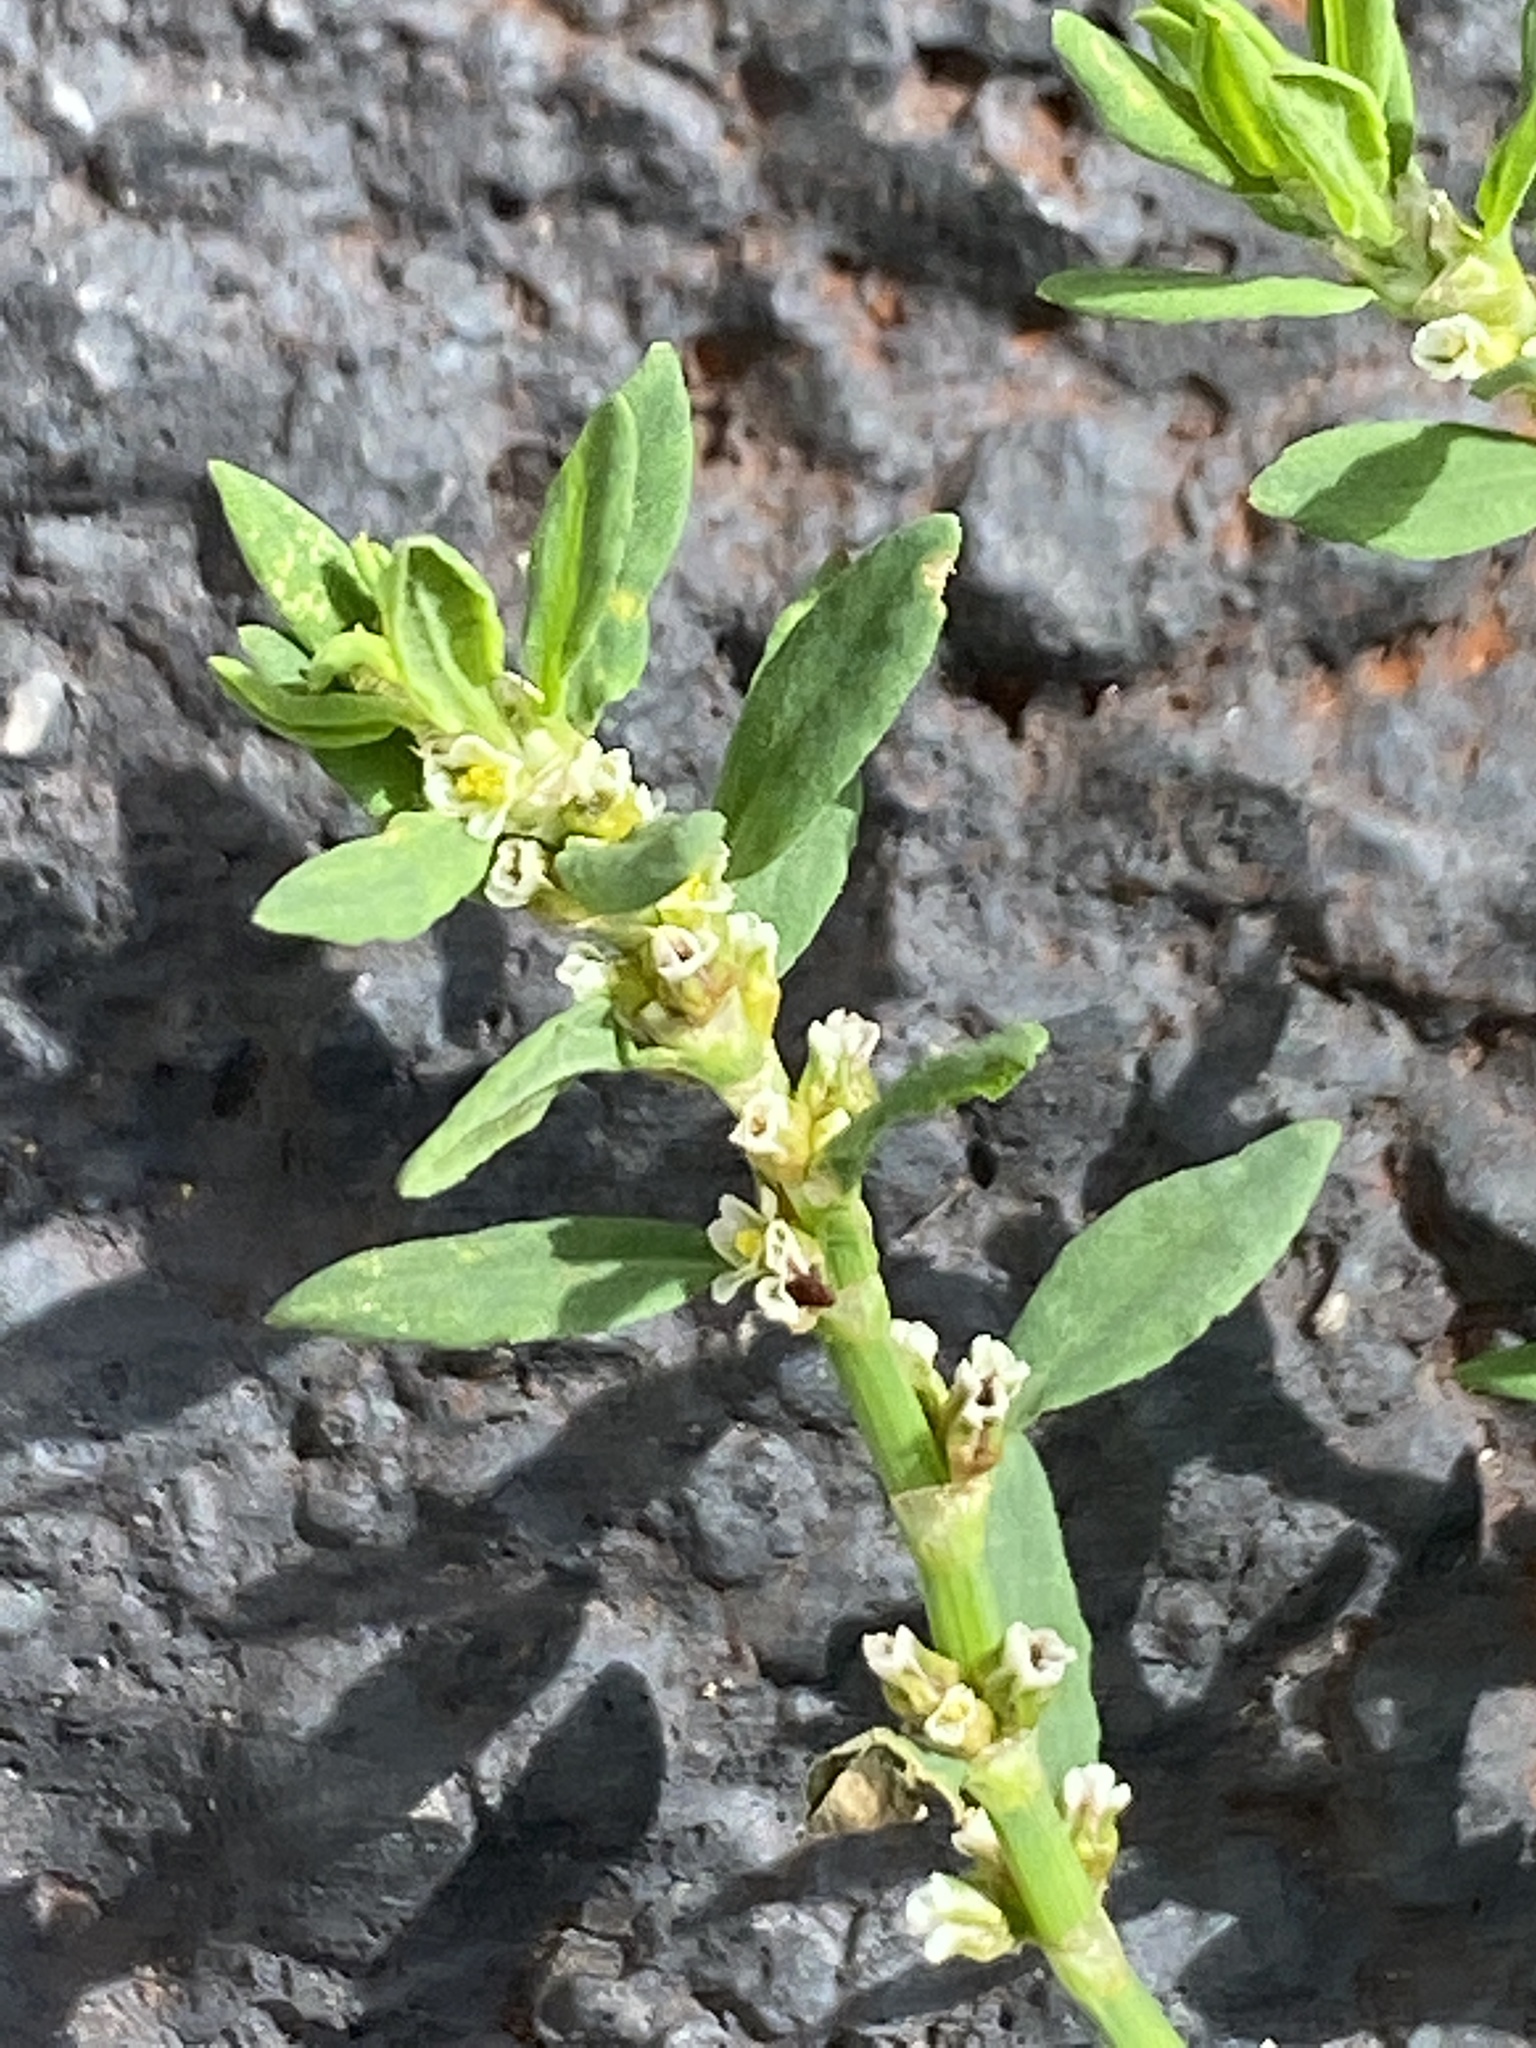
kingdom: Plantae
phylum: Tracheophyta
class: Magnoliopsida
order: Caryophyllales
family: Polygonaceae
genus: Polygonum
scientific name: Polygonum aviculare
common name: Prostrate knotweed
